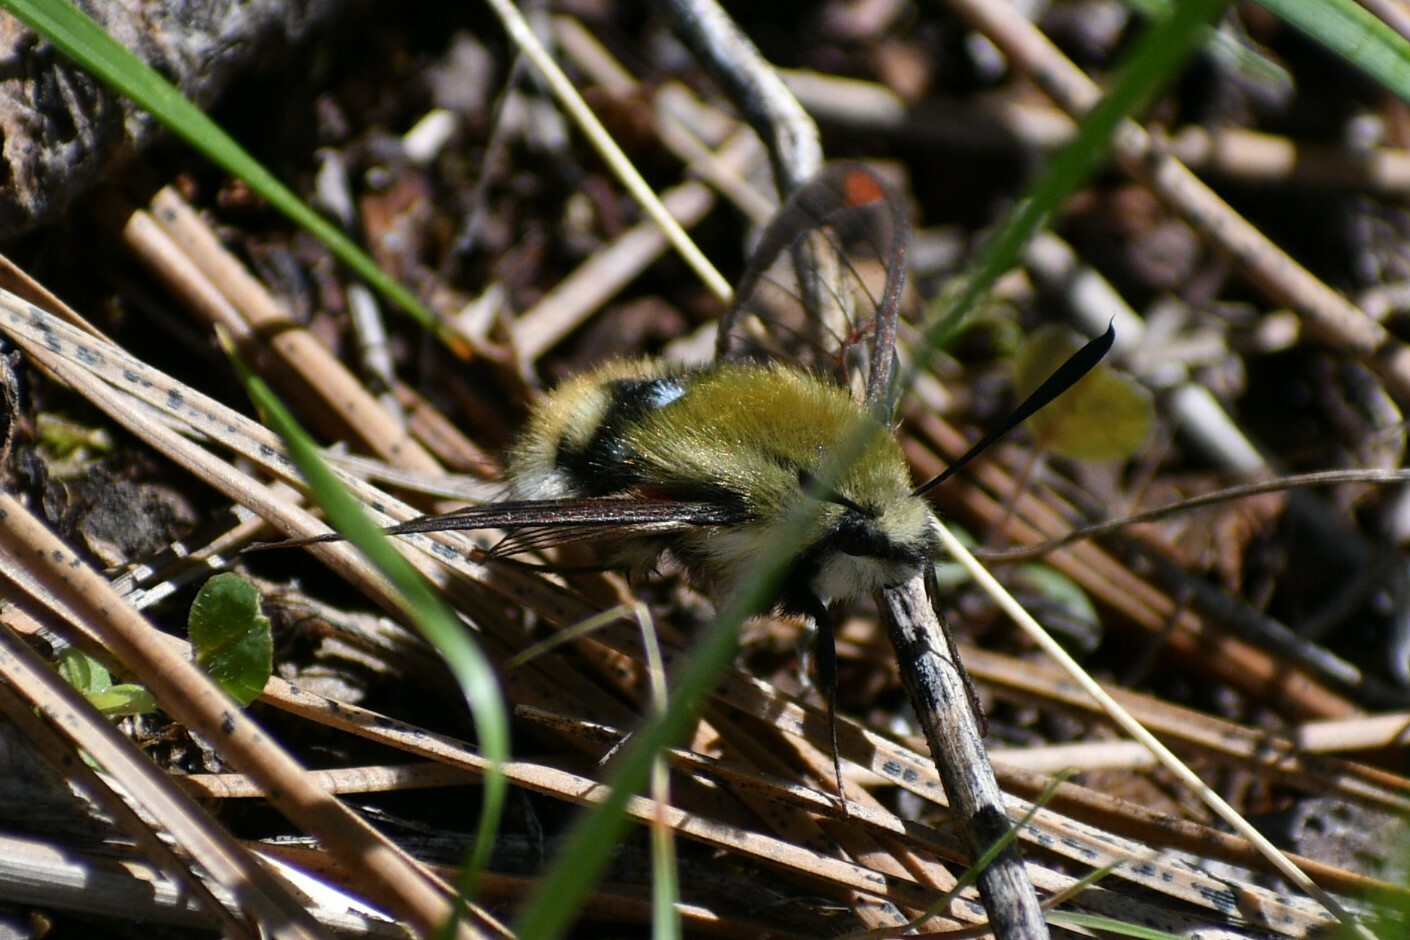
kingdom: Animalia
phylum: Arthropoda
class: Insecta
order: Lepidoptera
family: Sphingidae
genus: Hemaris
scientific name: Hemaris thetis
